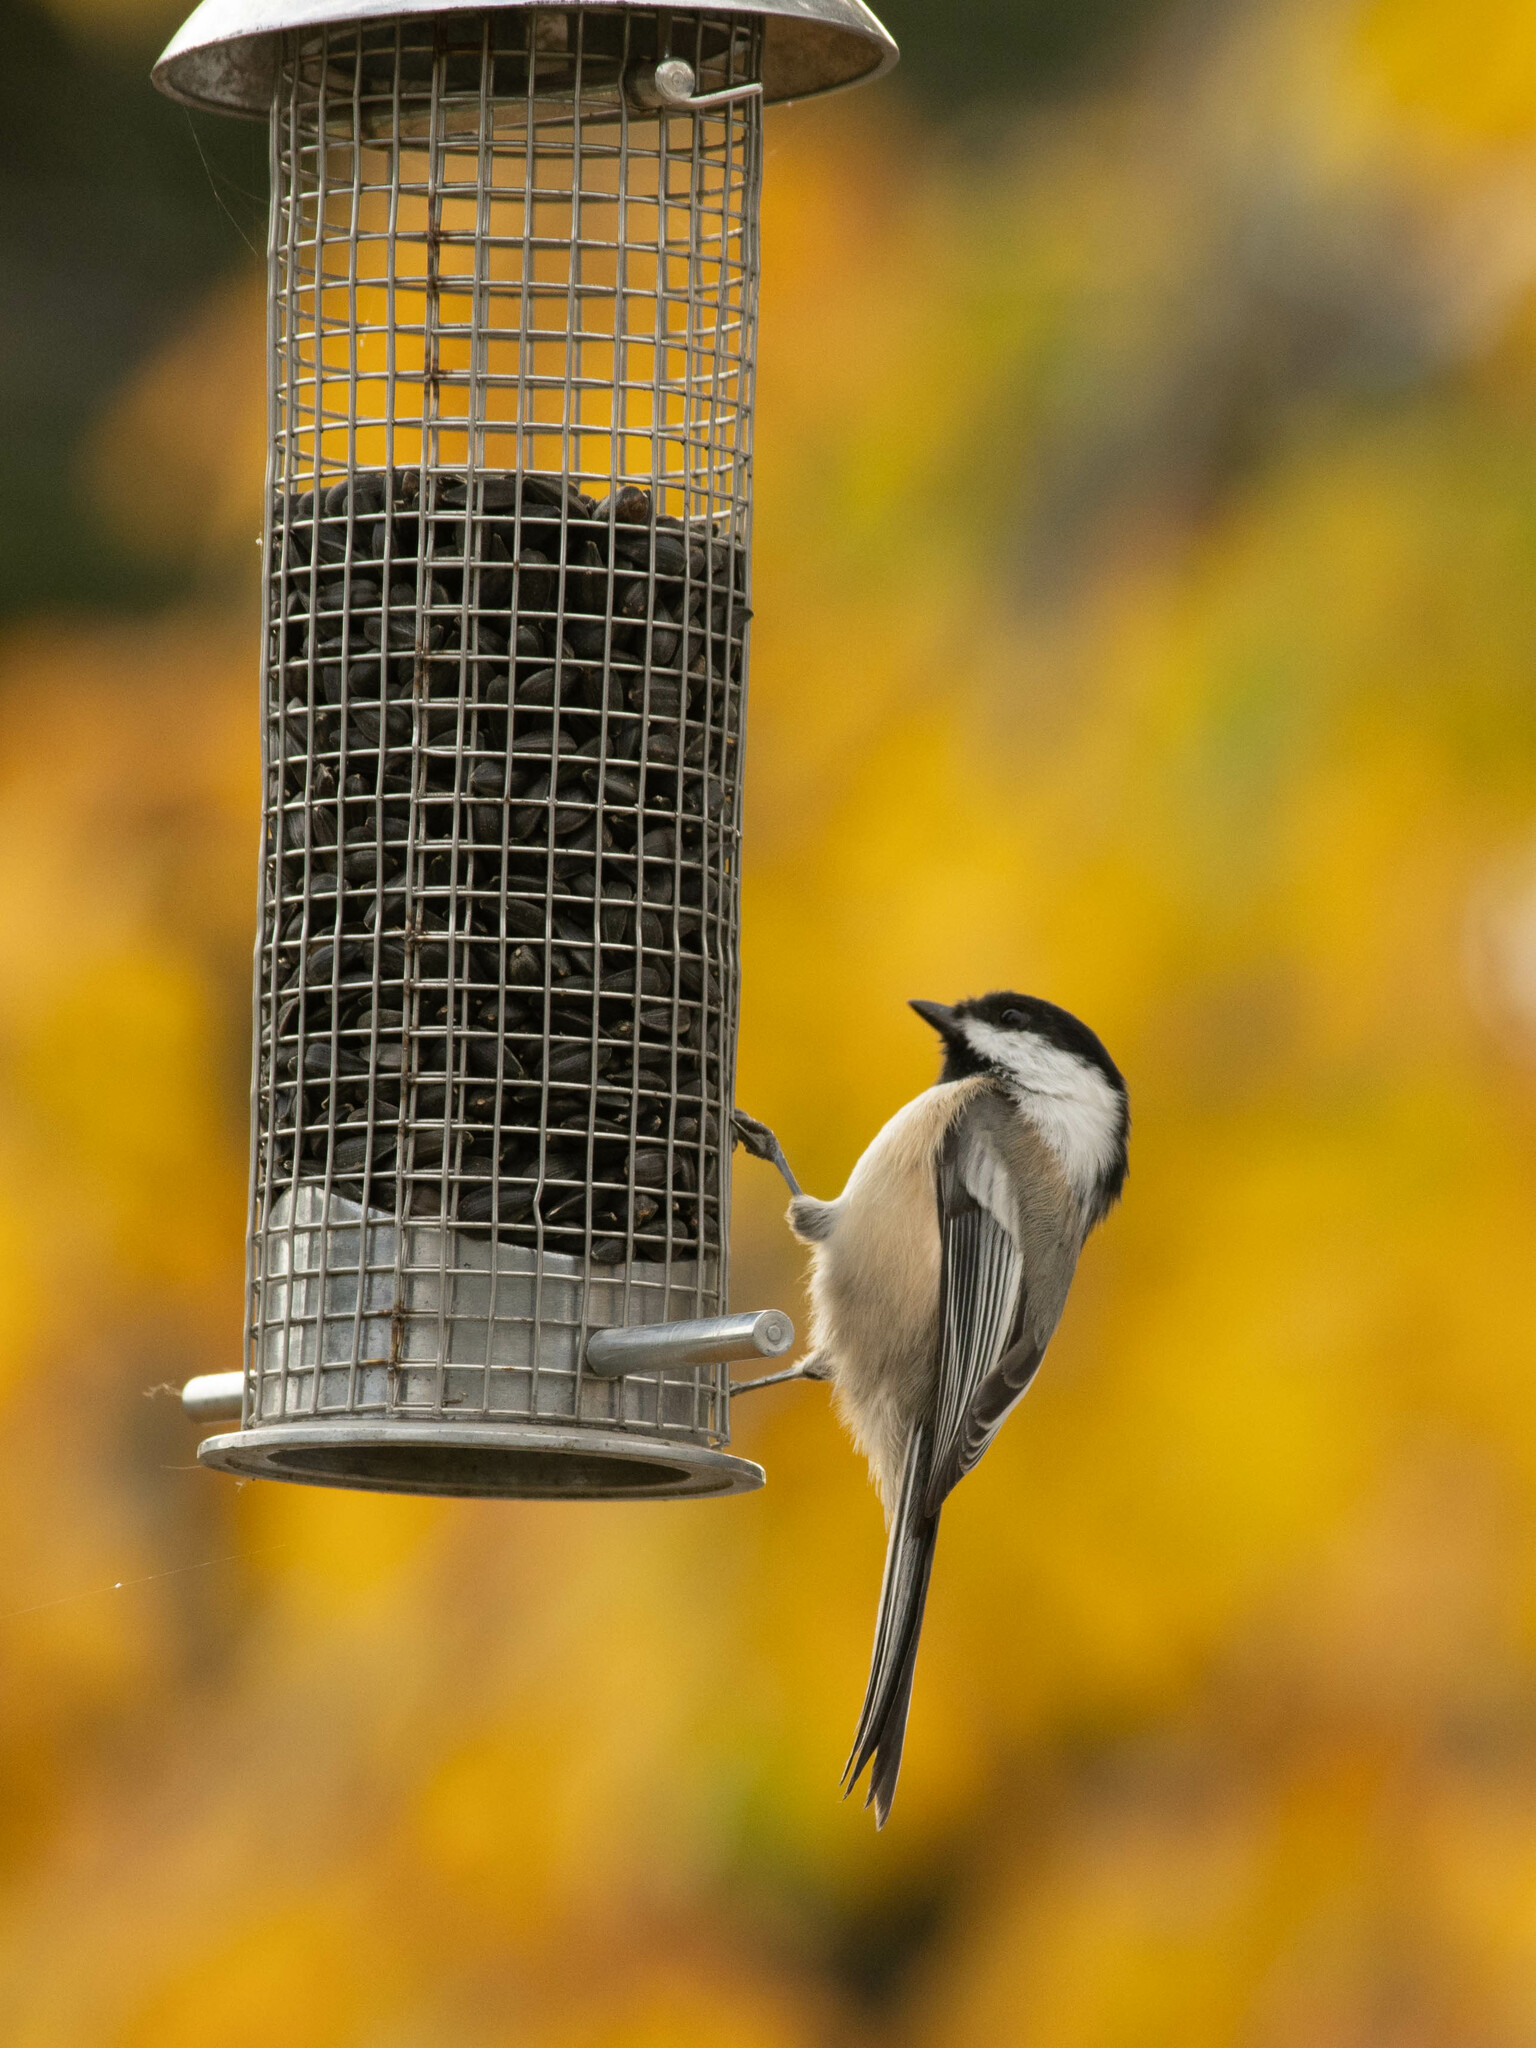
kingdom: Animalia
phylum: Chordata
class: Aves
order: Passeriformes
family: Paridae
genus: Poecile
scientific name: Poecile atricapillus
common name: Black-capped chickadee
